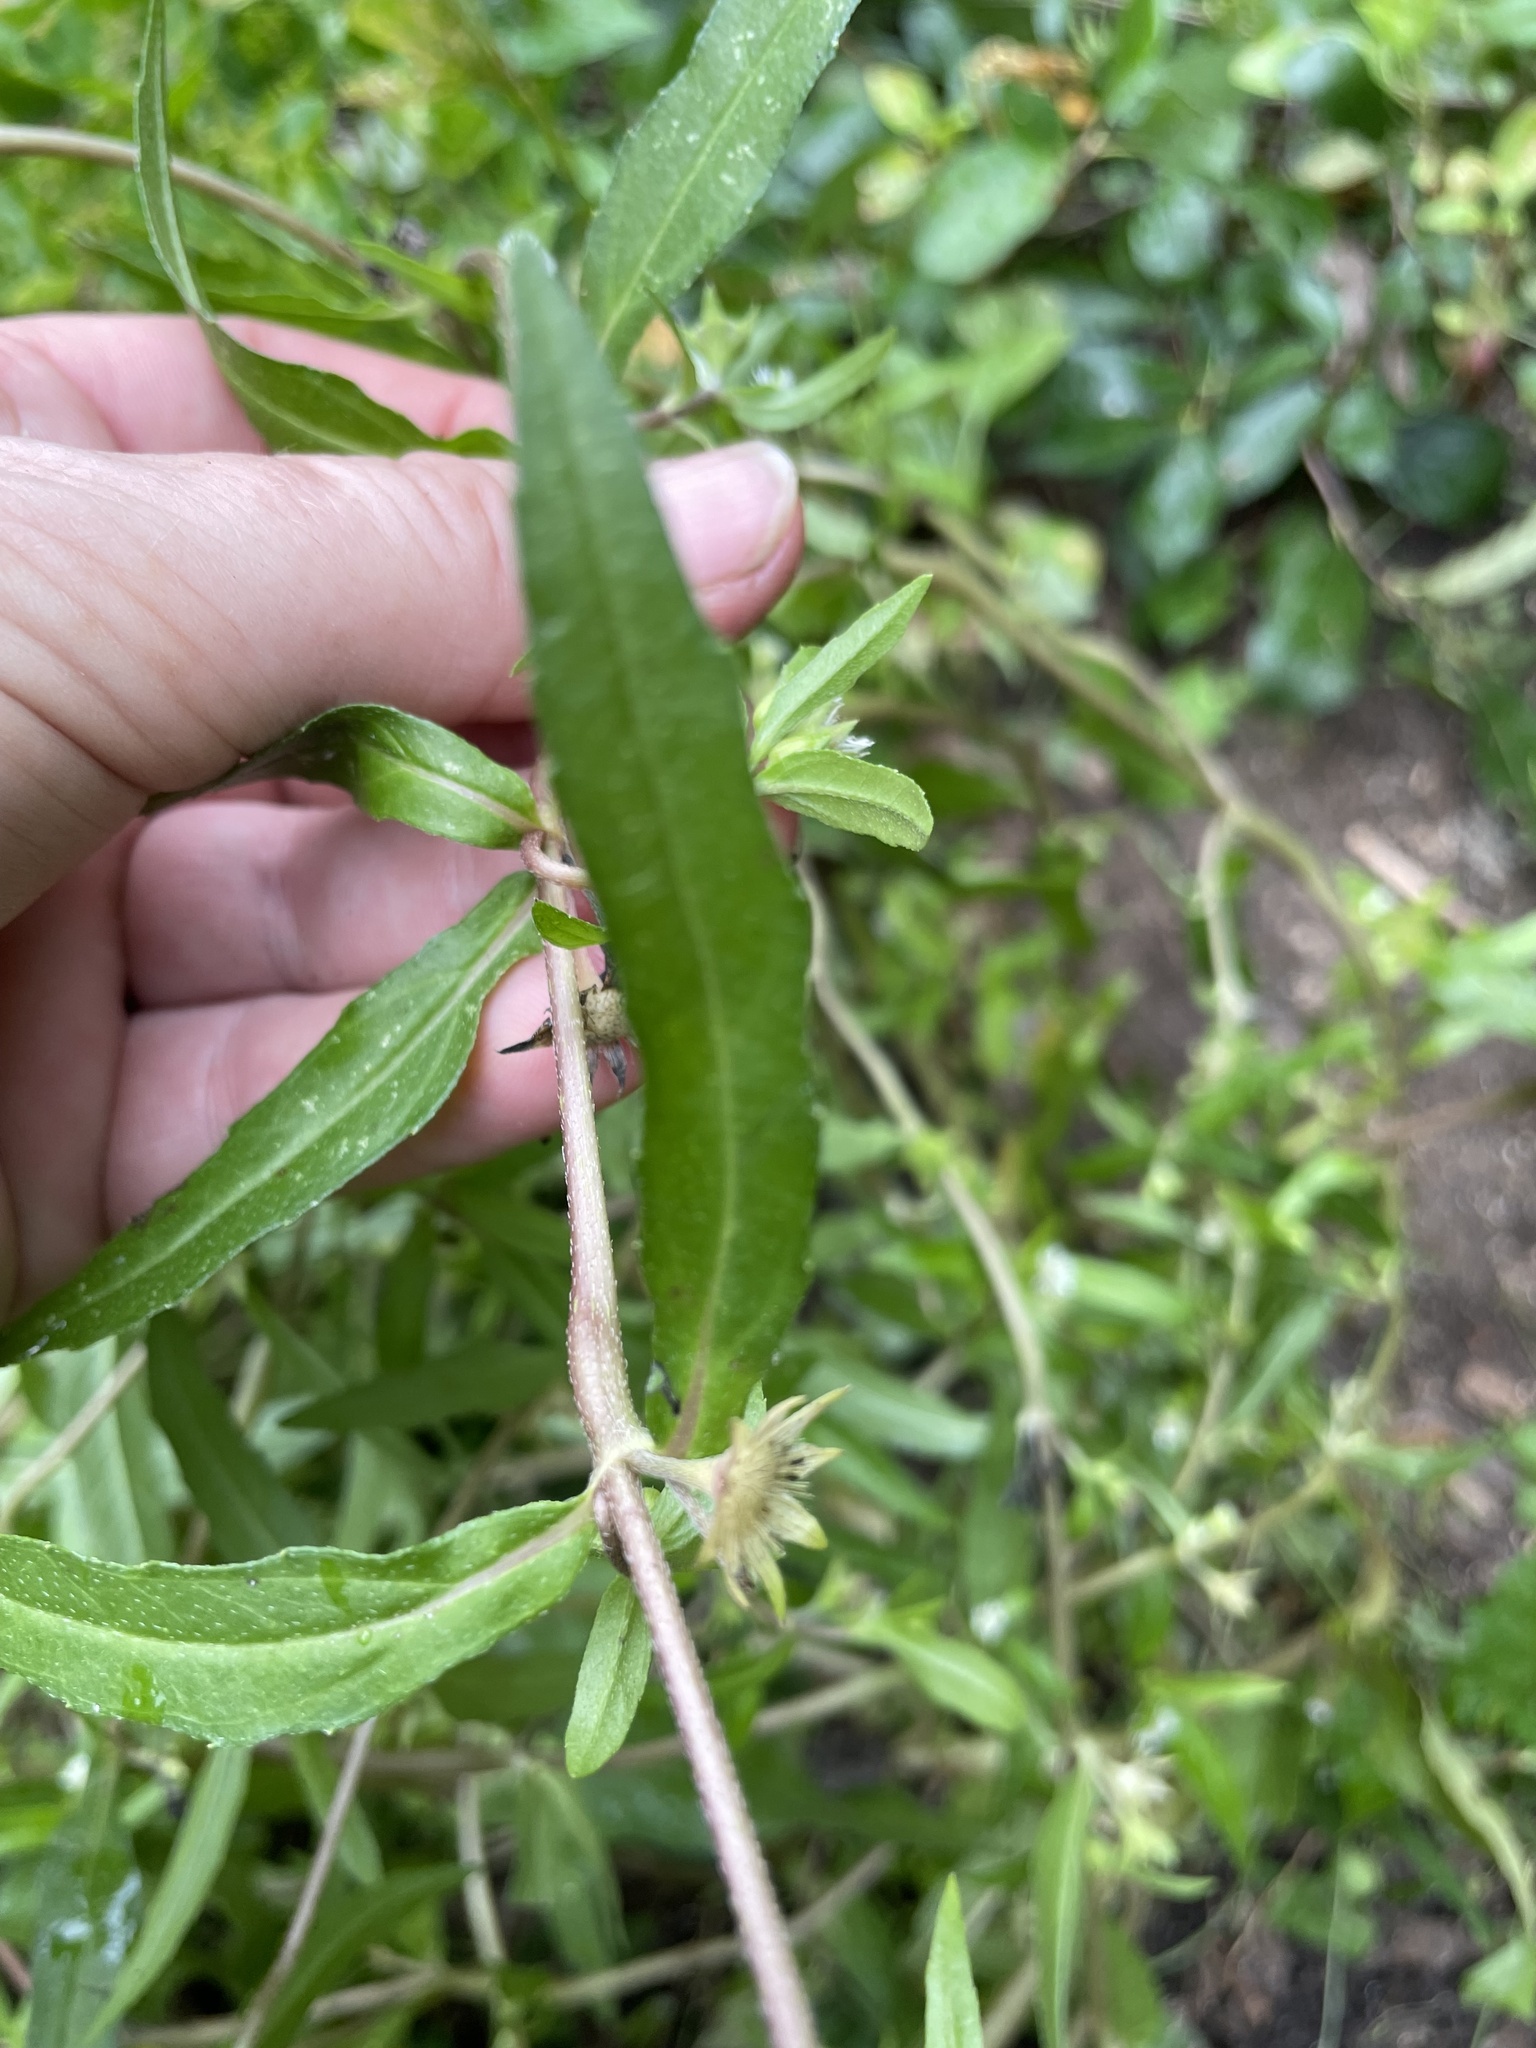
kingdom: Plantae
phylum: Tracheophyta
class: Magnoliopsida
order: Asterales
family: Asteraceae
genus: Eclipta
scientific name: Eclipta prostrata
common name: False daisy
